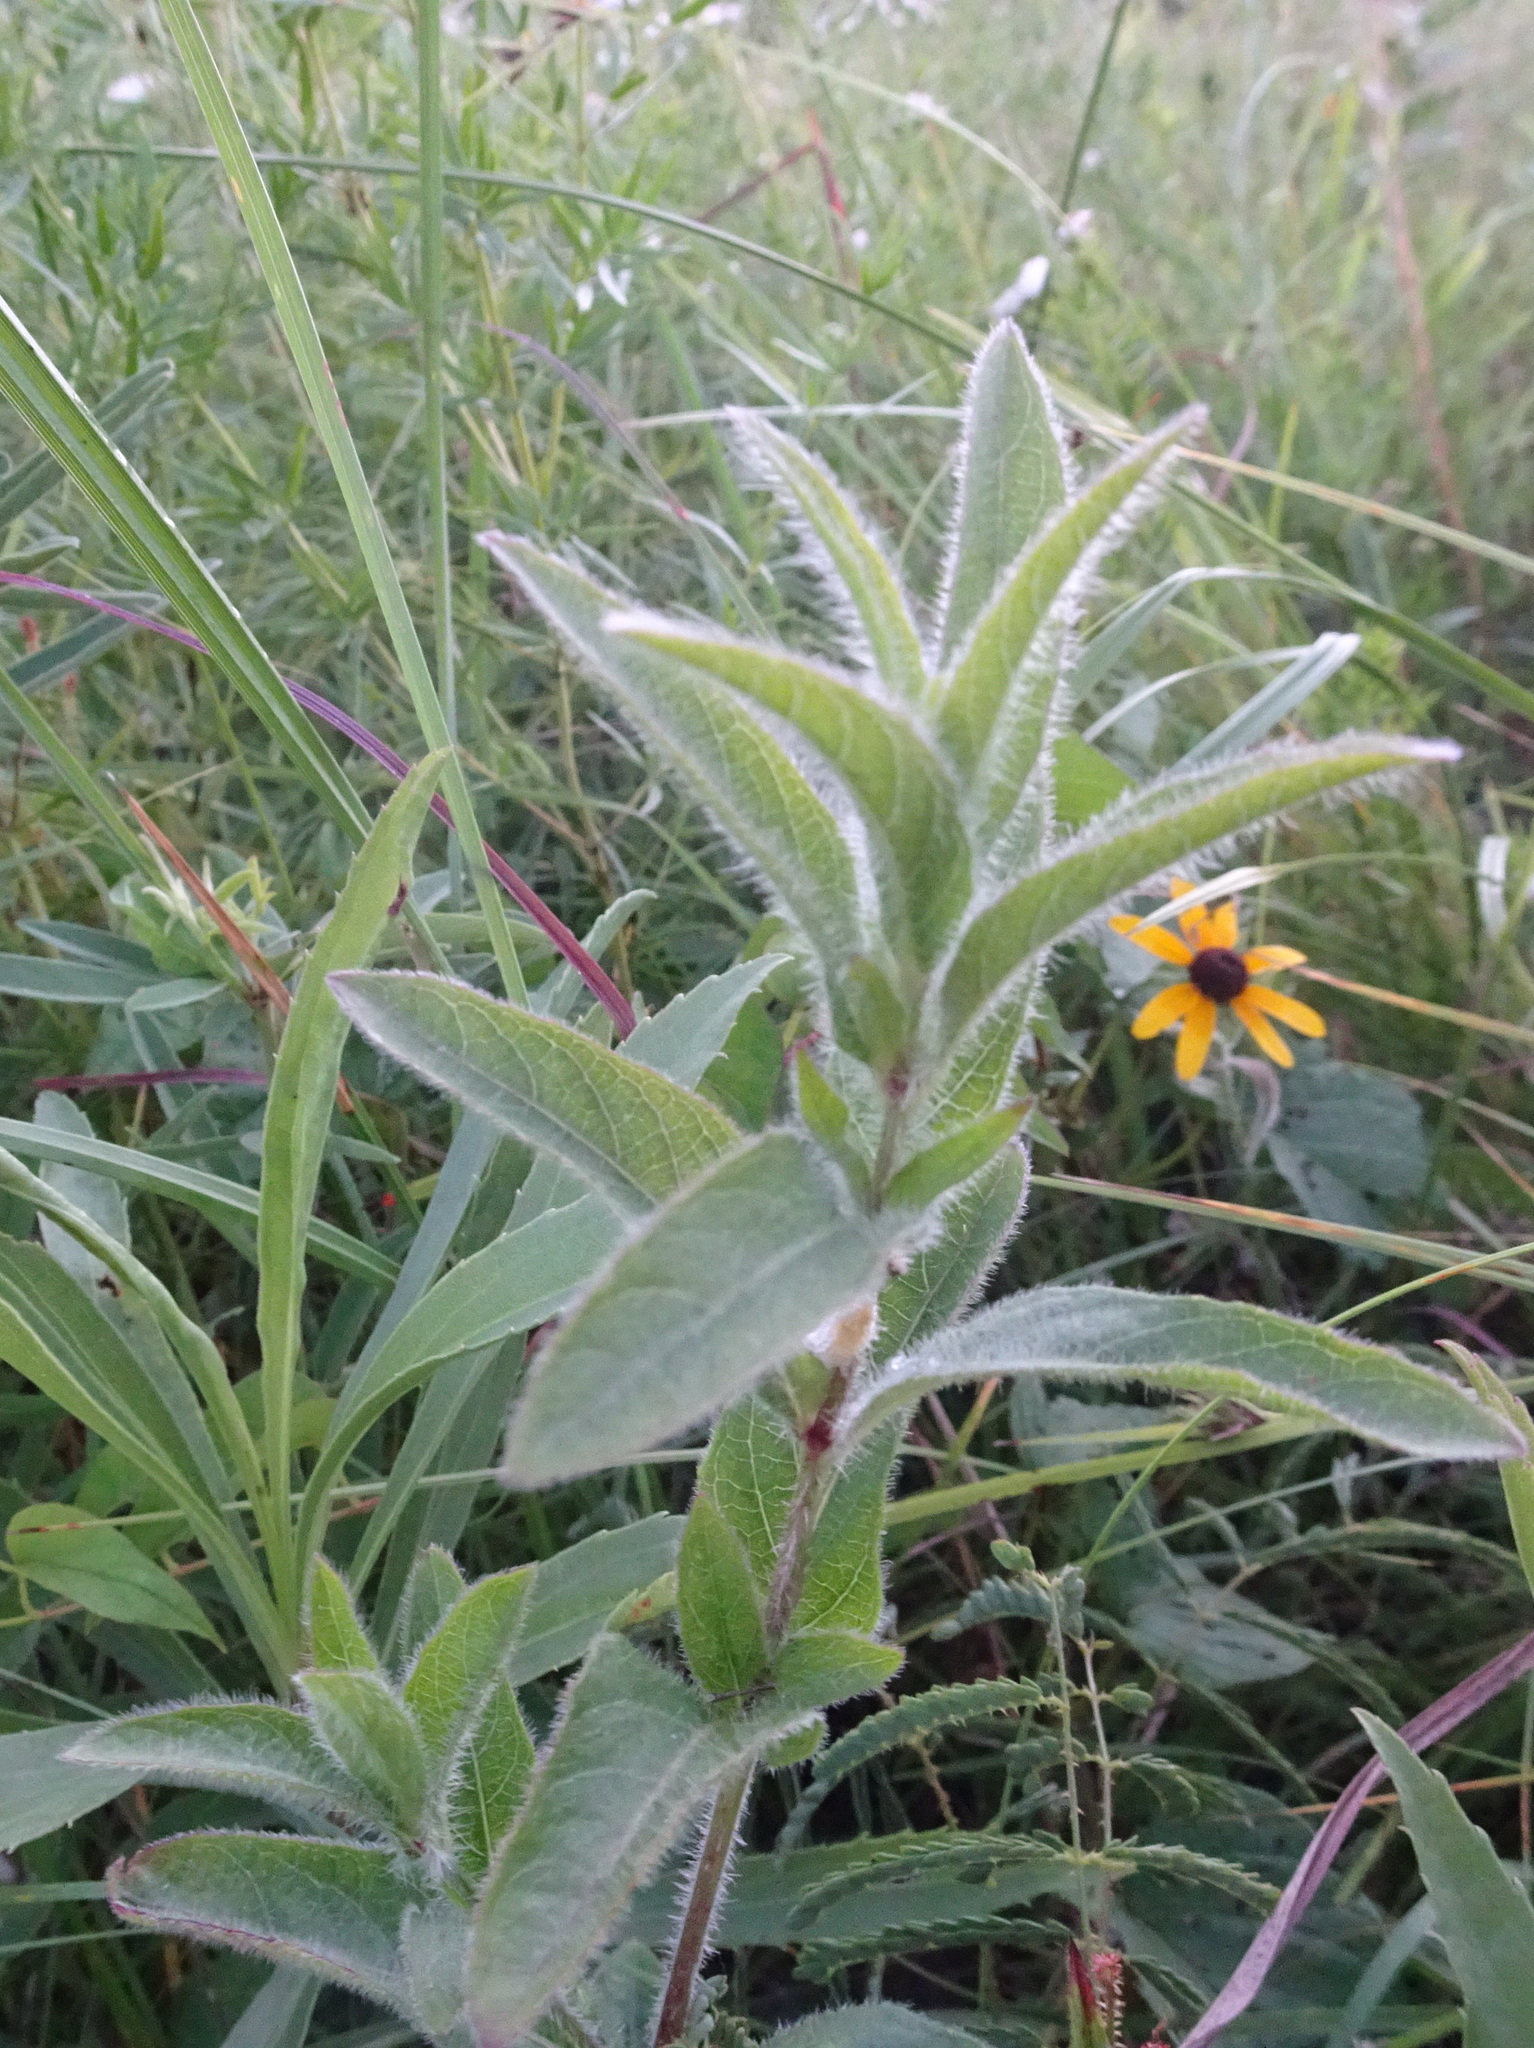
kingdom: Plantae
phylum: Tracheophyta
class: Magnoliopsida
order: Lamiales
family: Acanthaceae
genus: Ruellia
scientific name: Ruellia humilis
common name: Fringe-leaf ruellia
